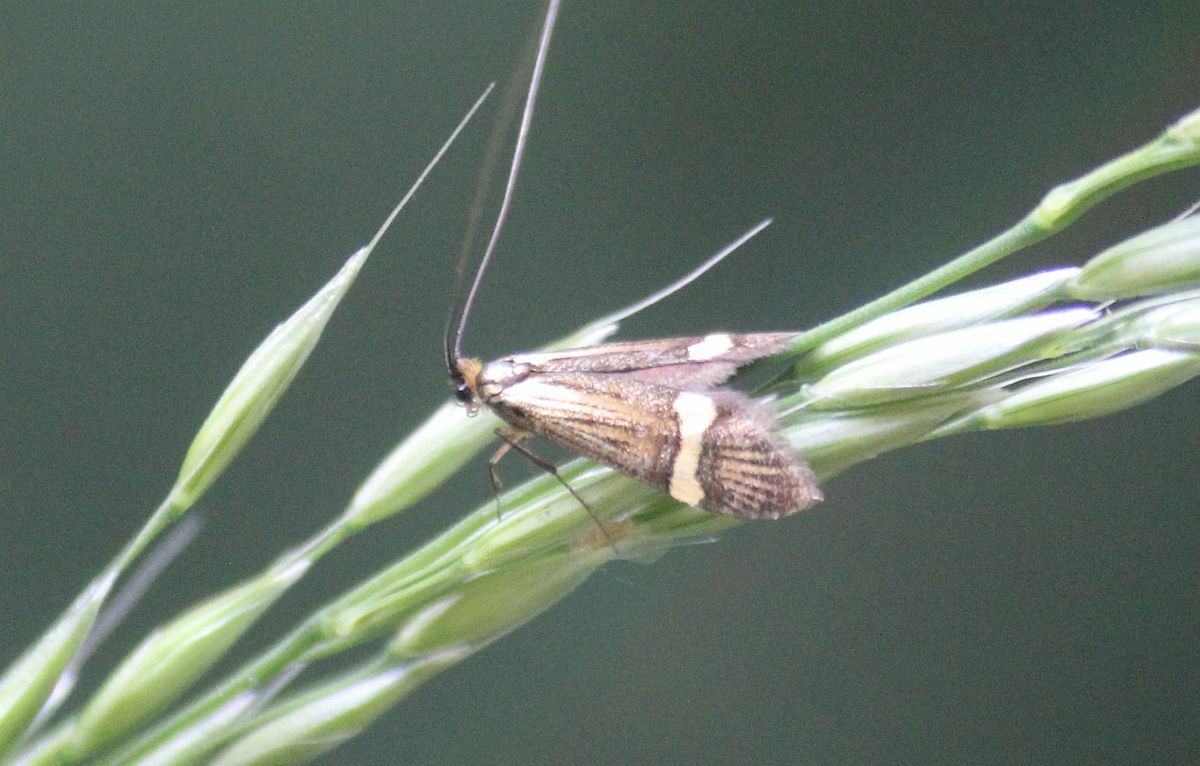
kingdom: Animalia
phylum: Arthropoda
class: Insecta
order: Lepidoptera
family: Adelidae
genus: Nemophora
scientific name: Nemophora degeerella
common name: Yellow-barred long-horn
